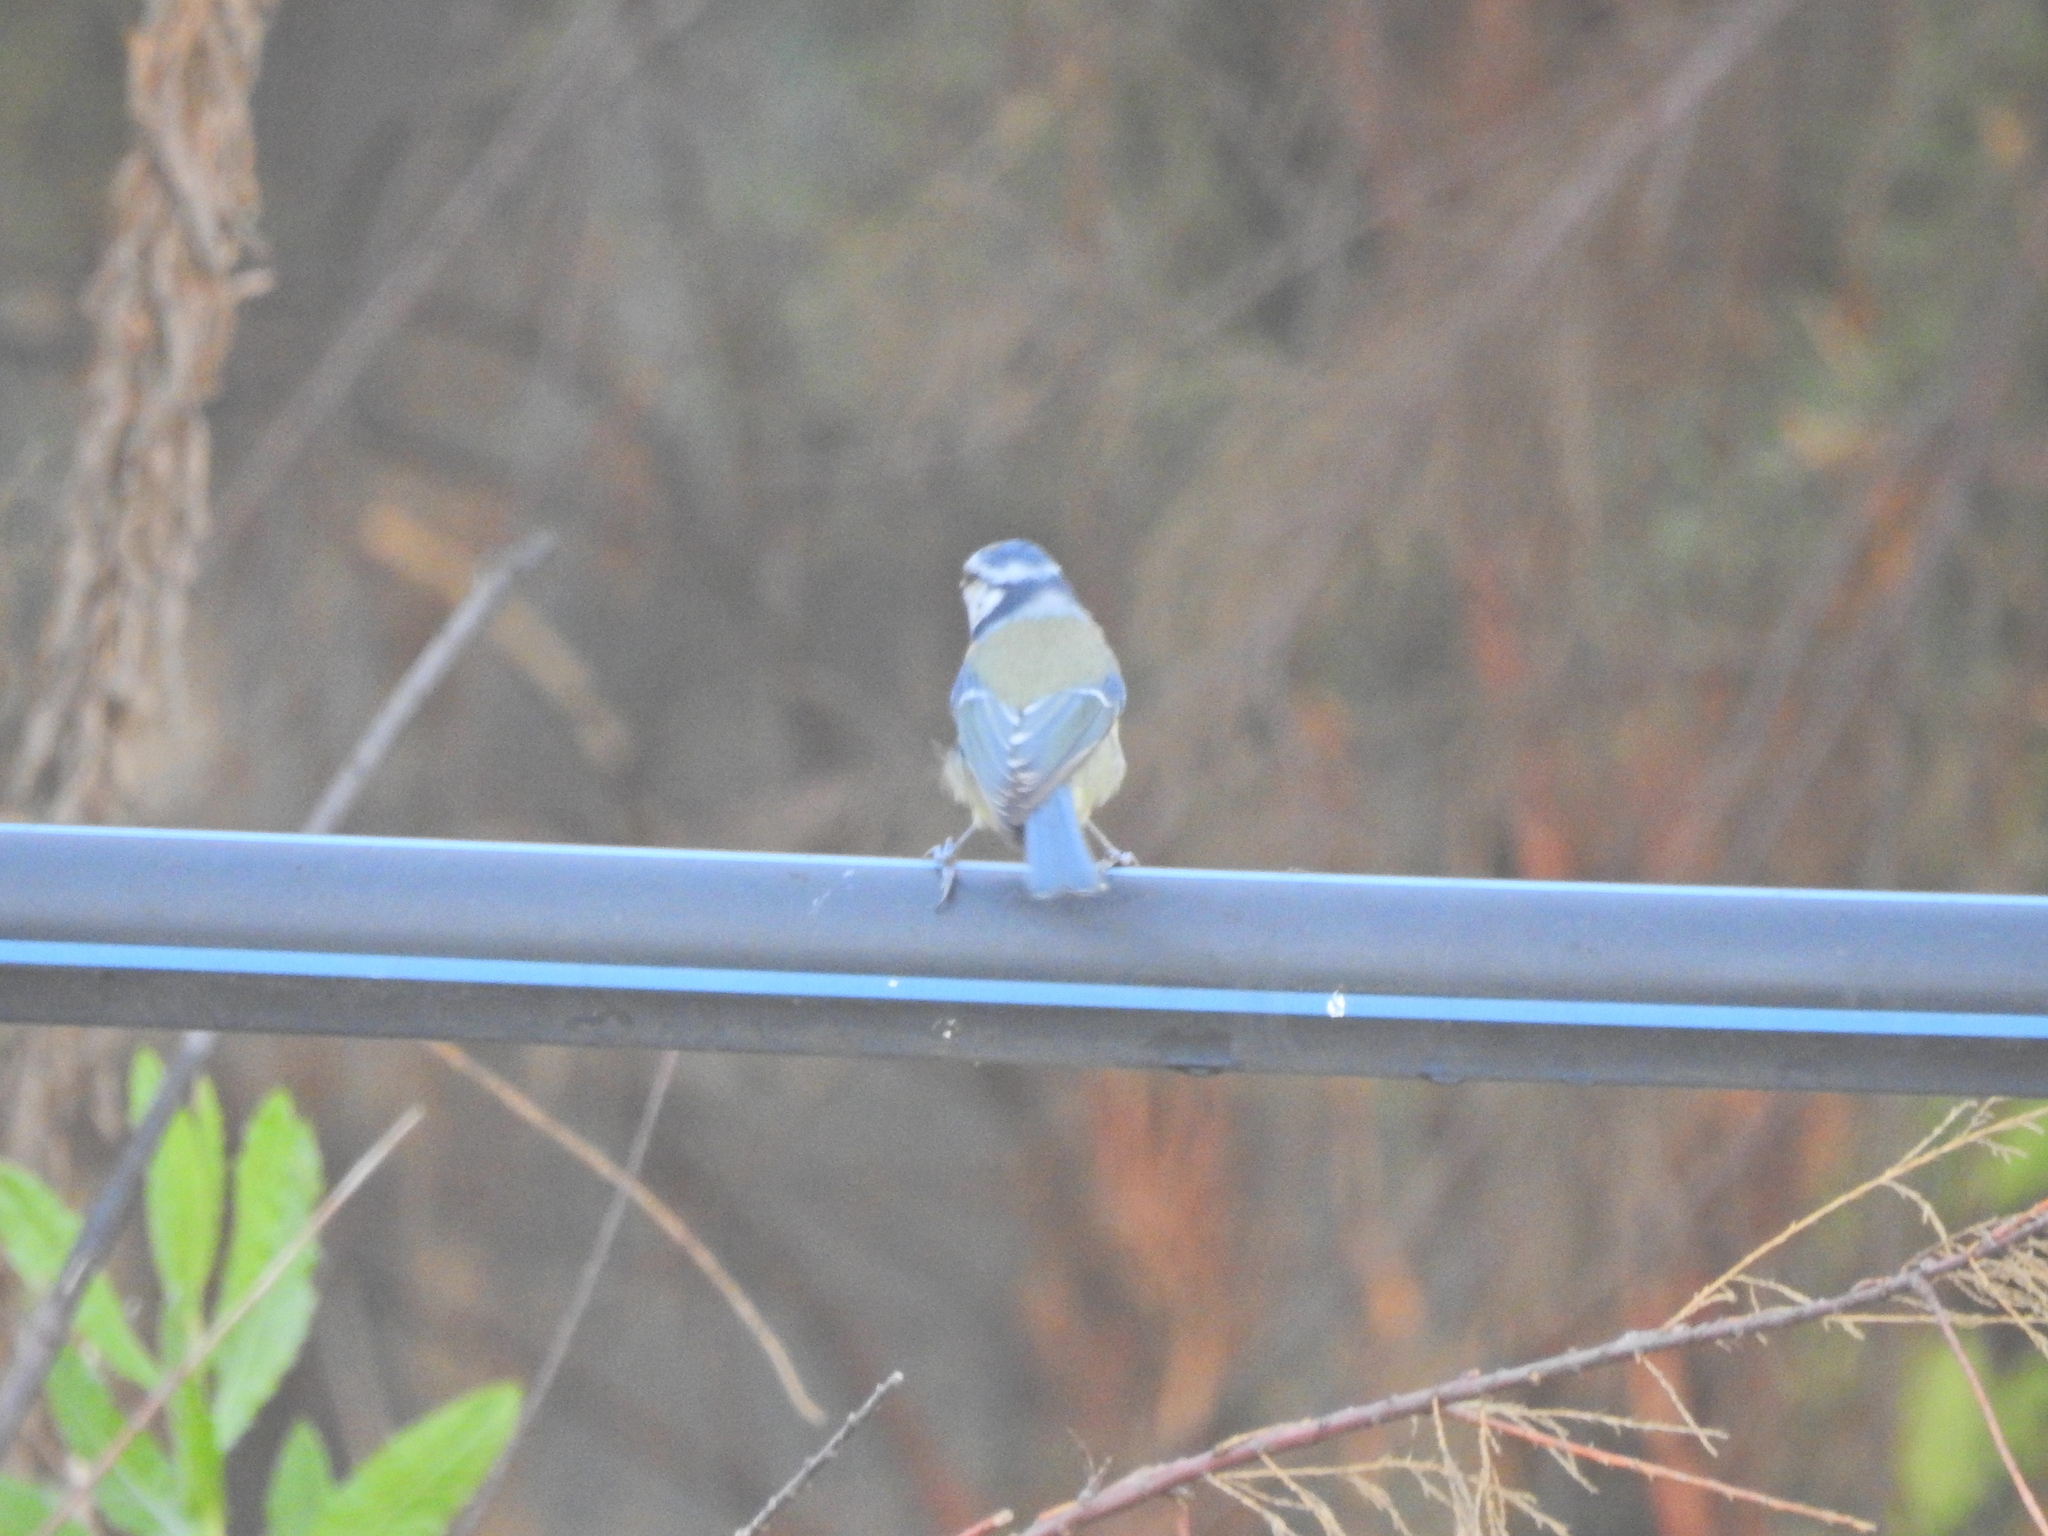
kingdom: Animalia
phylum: Chordata
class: Aves
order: Passeriformes
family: Paridae
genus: Cyanistes
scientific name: Cyanistes caeruleus
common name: Eurasian blue tit
